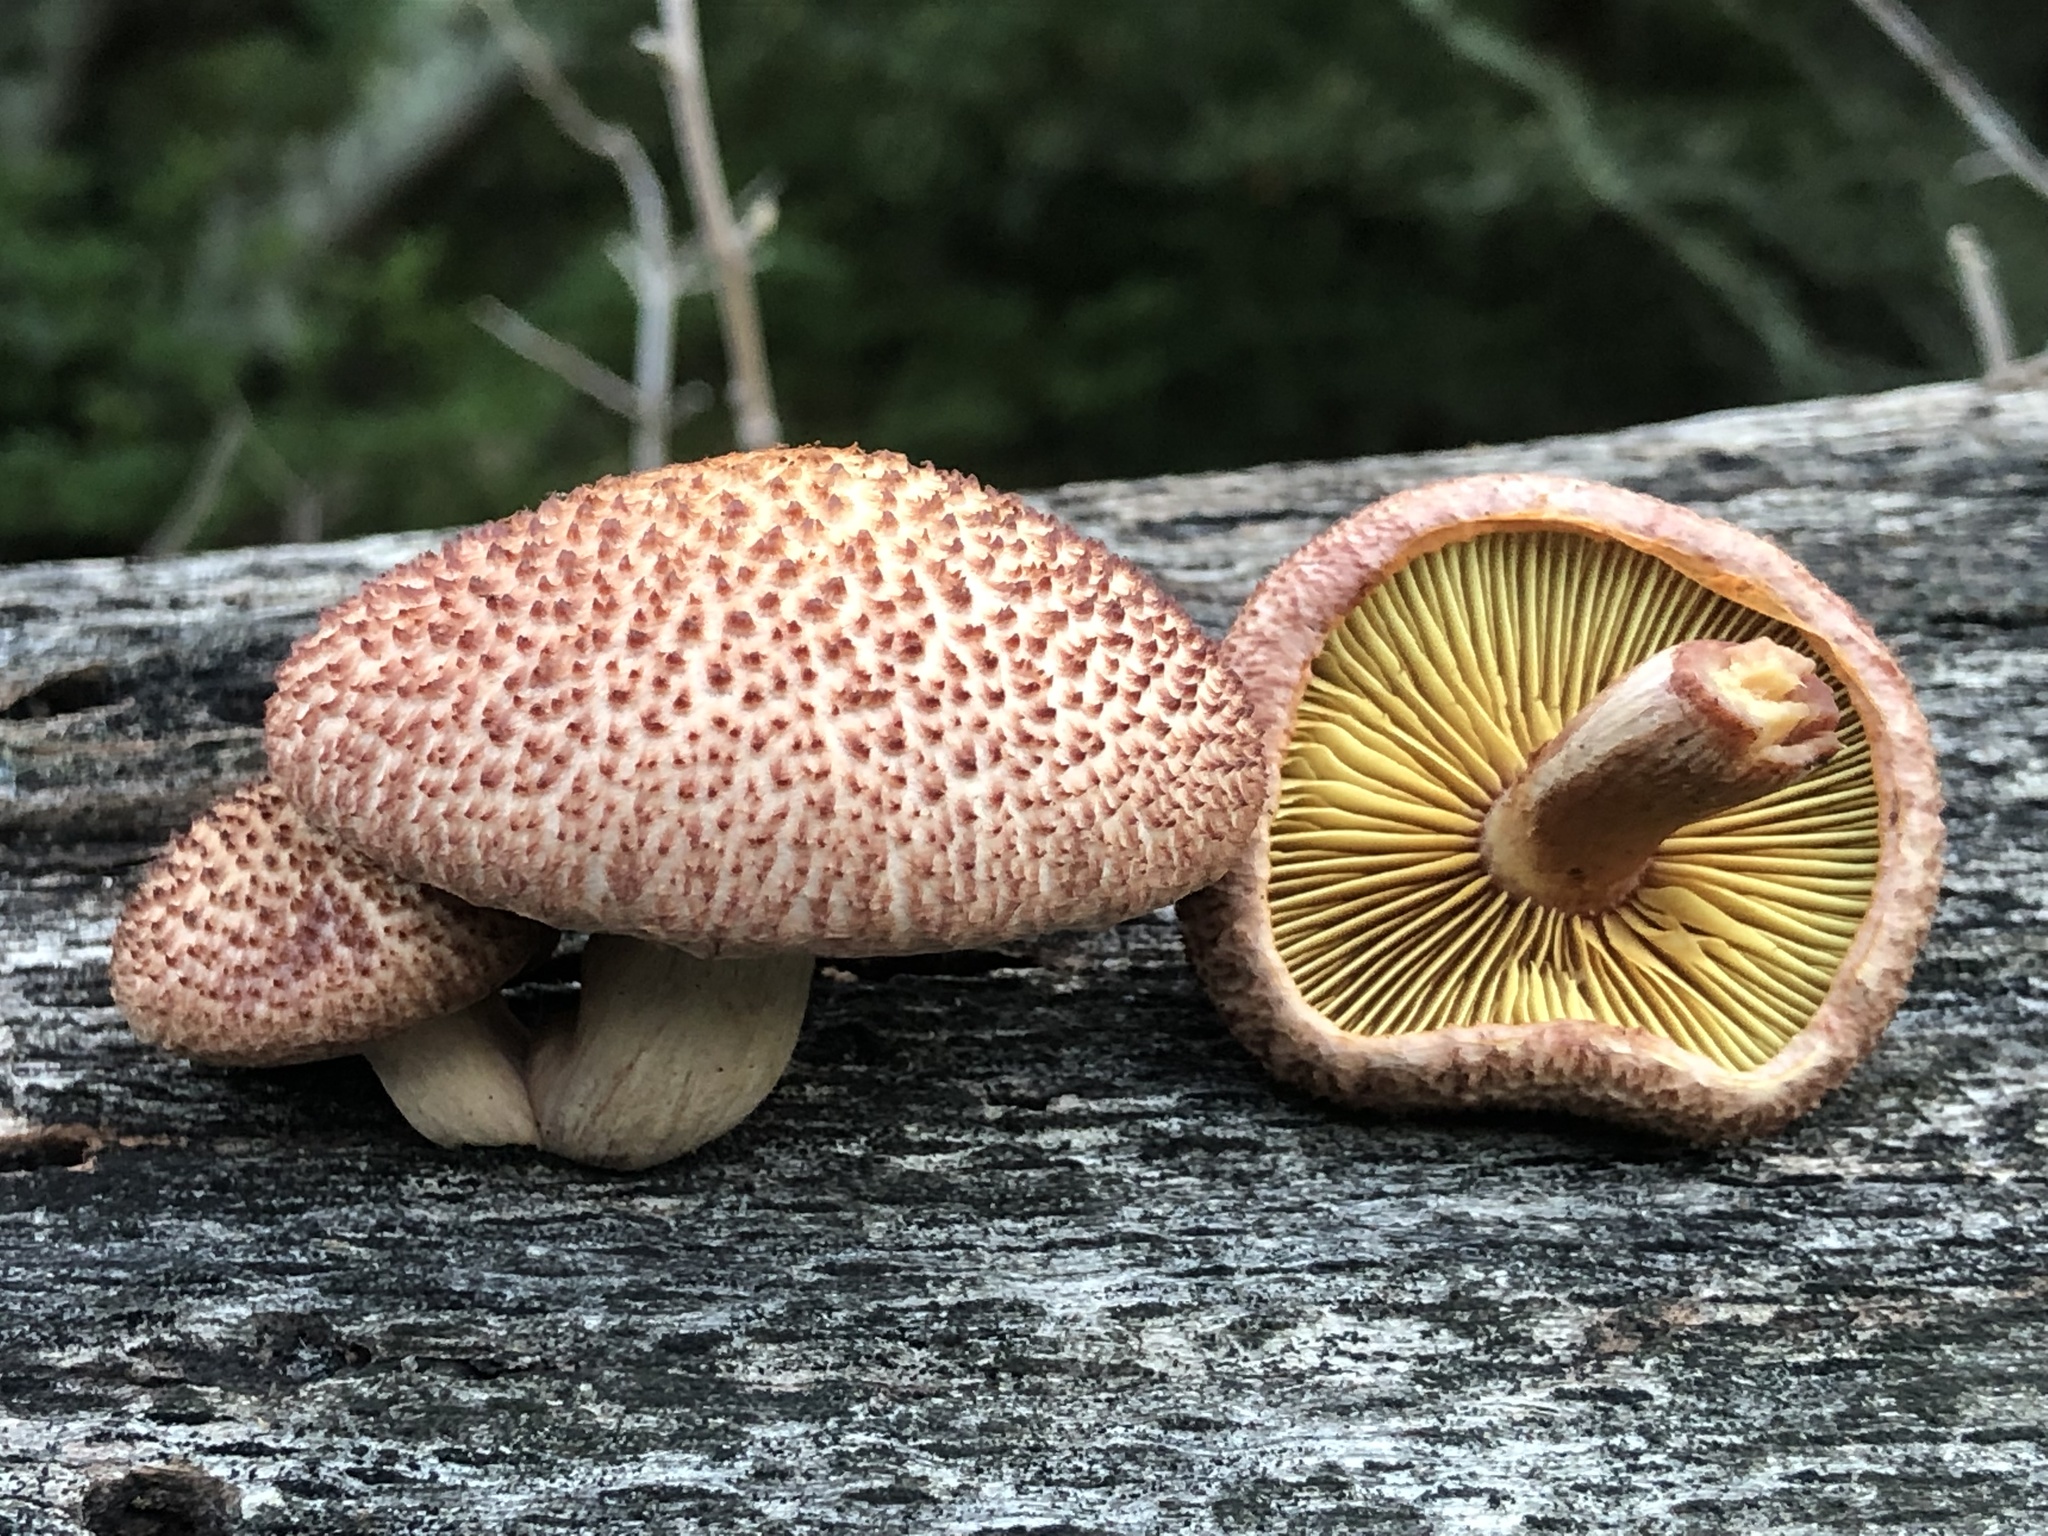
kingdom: Fungi
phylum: Basidiomycota
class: Agaricomycetes
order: Agaricales
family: Hymenogastraceae
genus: Gymnopilus
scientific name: Gymnopilus luteofolius
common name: Yellow-gilled gymnopilus
